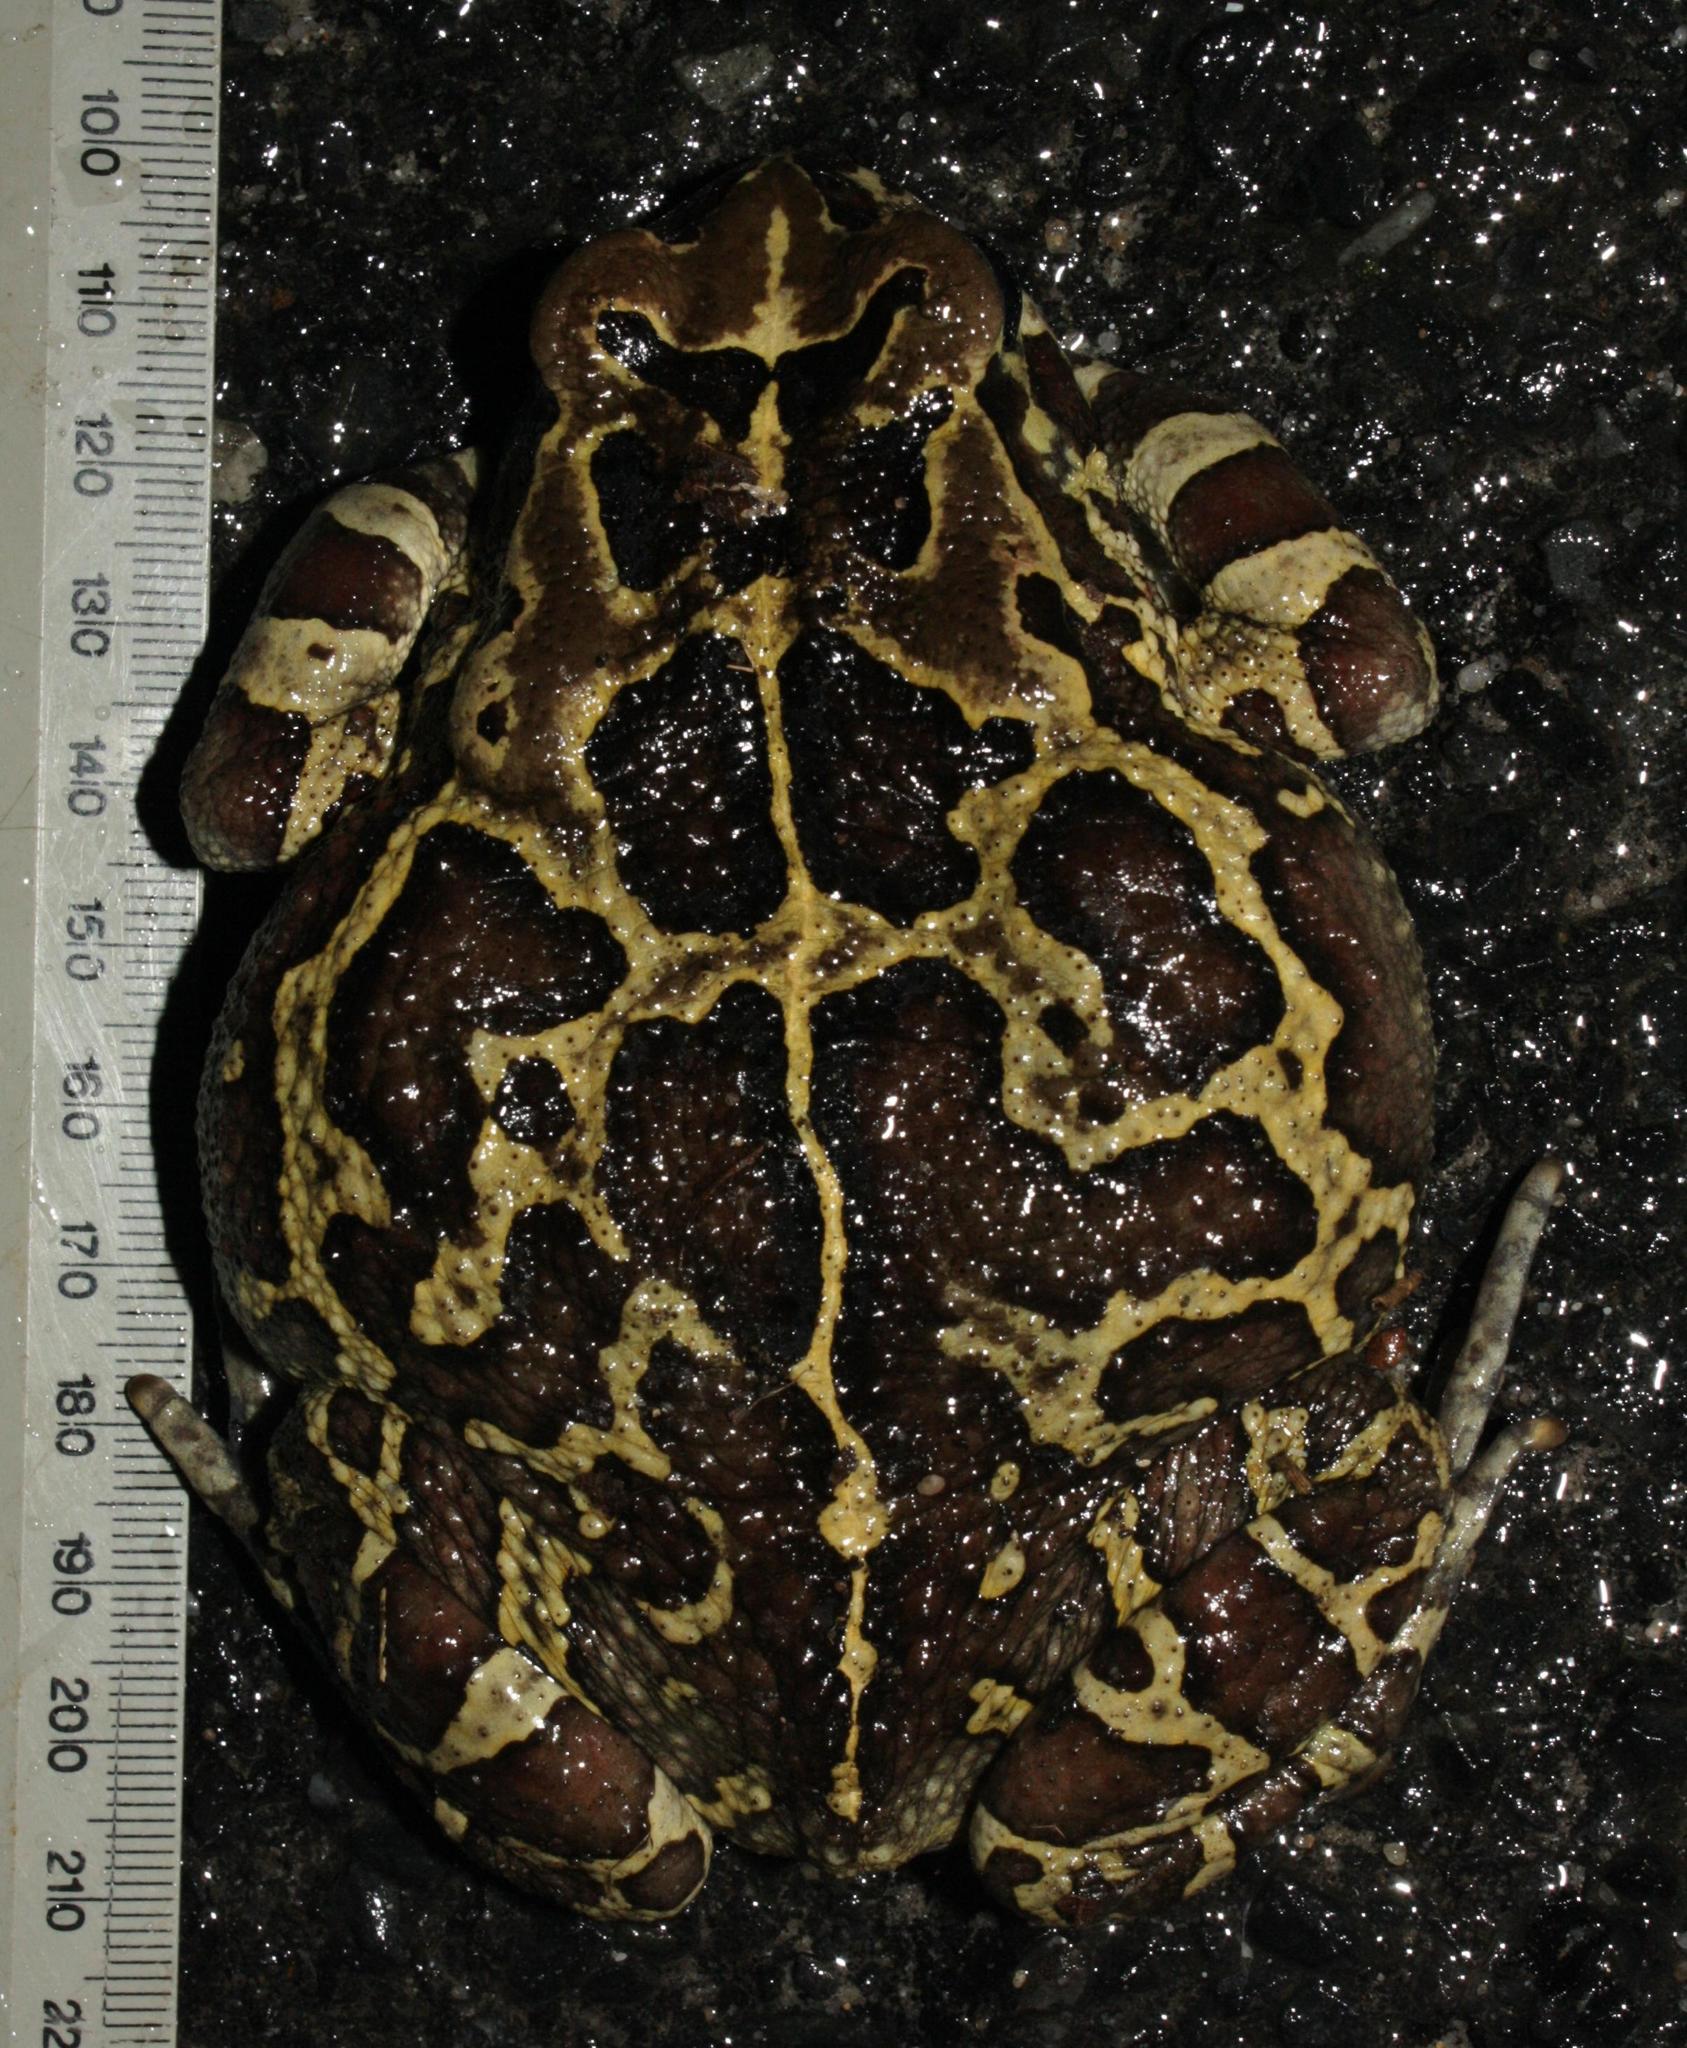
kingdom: Animalia
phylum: Chordata
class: Amphibia
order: Anura
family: Bufonidae
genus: Sclerophrys
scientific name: Sclerophrys pantherina
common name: Panther toad
